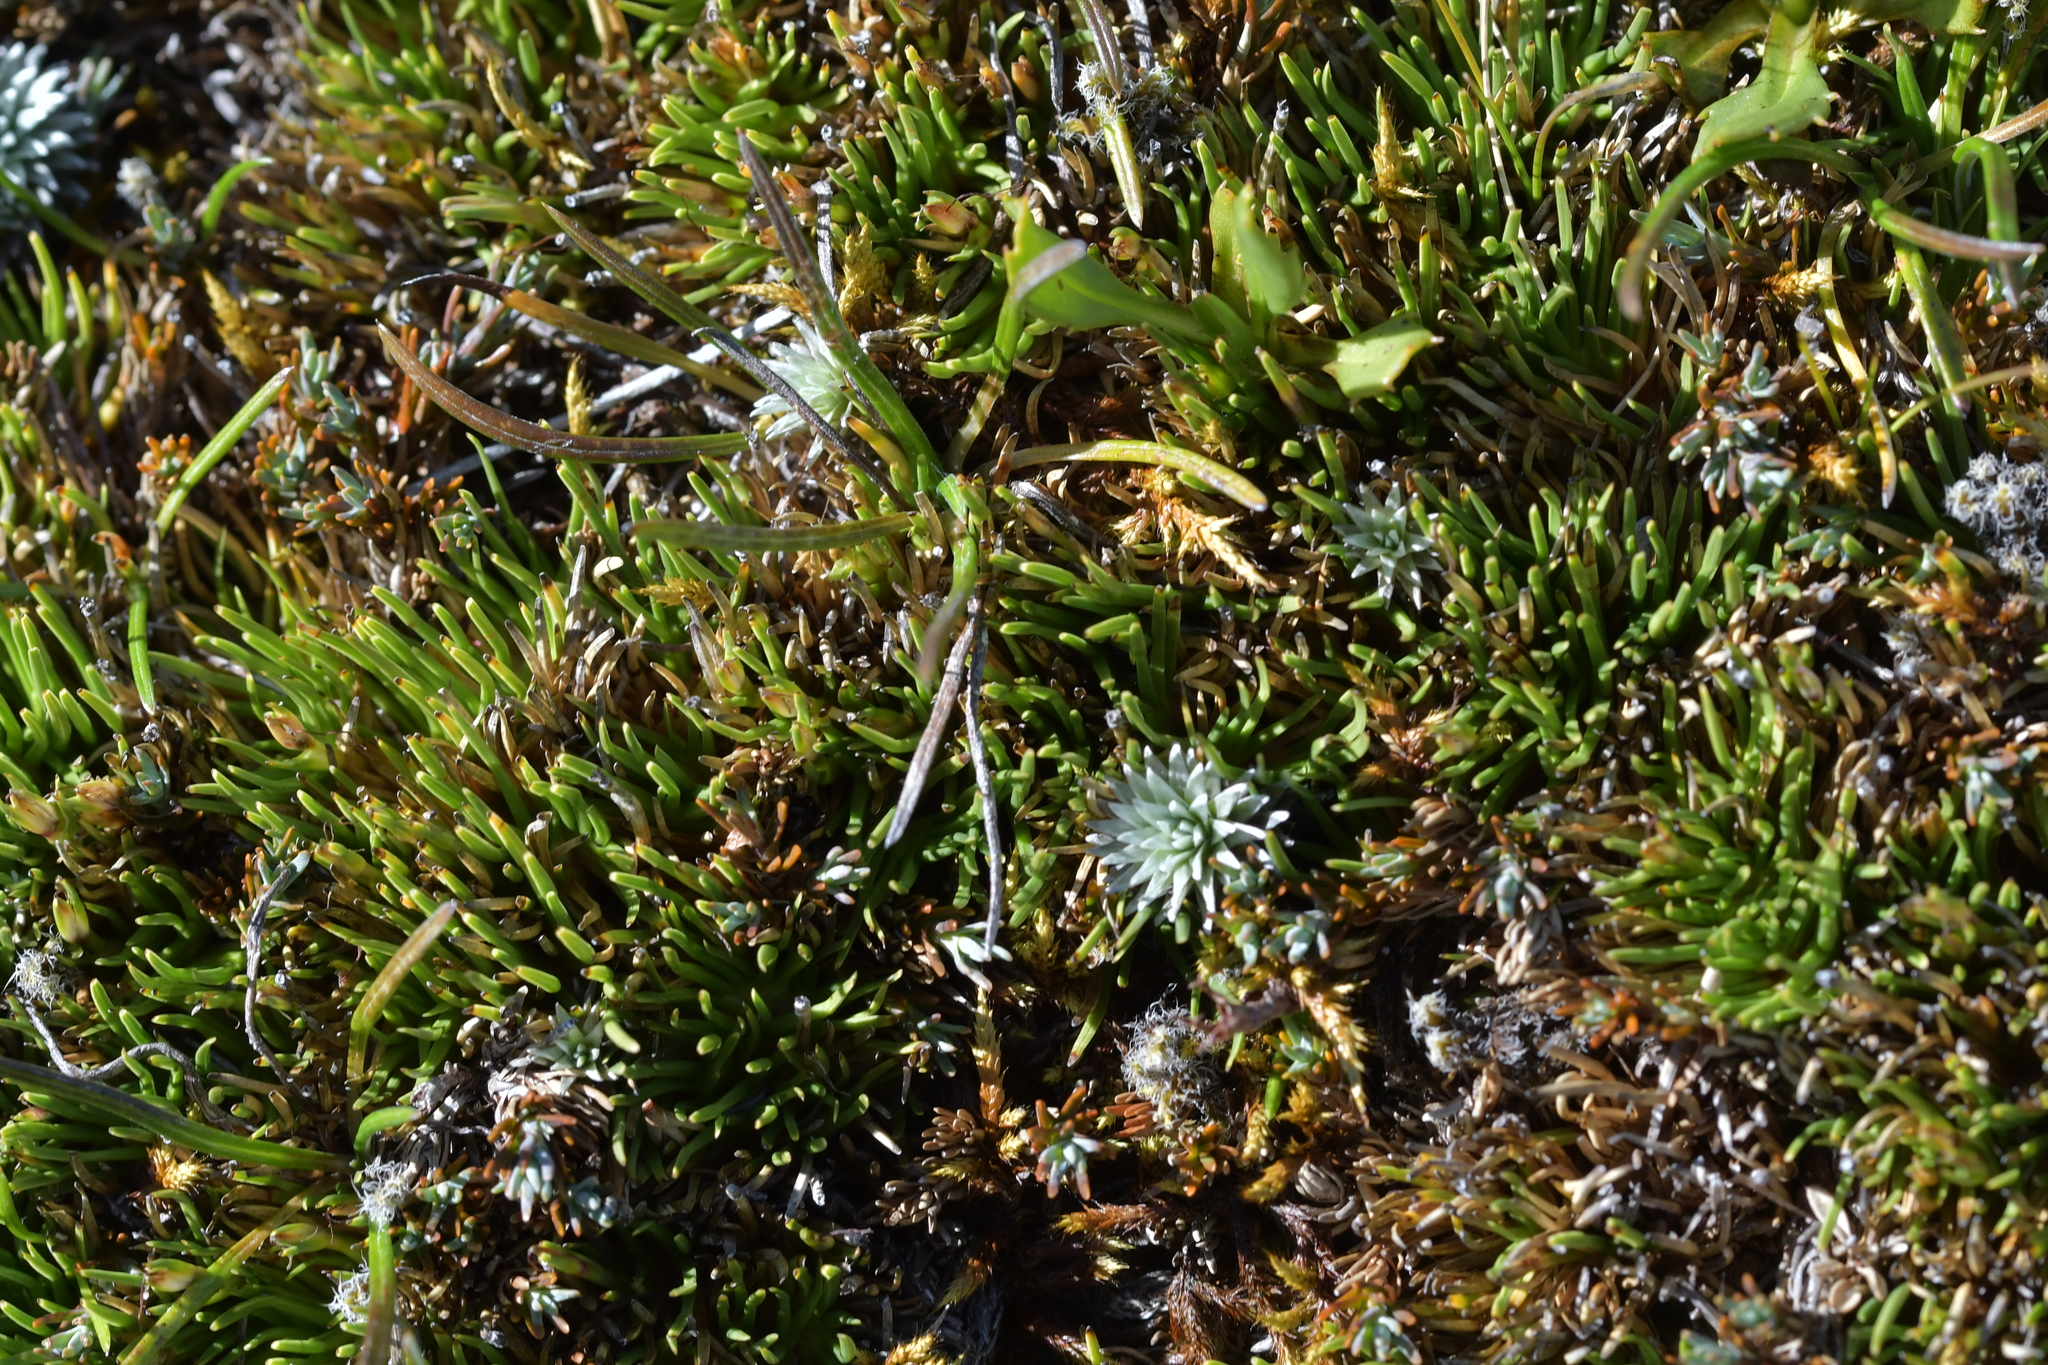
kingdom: Plantae
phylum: Tracheophyta
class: Liliopsida
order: Poales
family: Cyperaceae
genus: Oreobolus
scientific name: Oreobolus pectinatus
